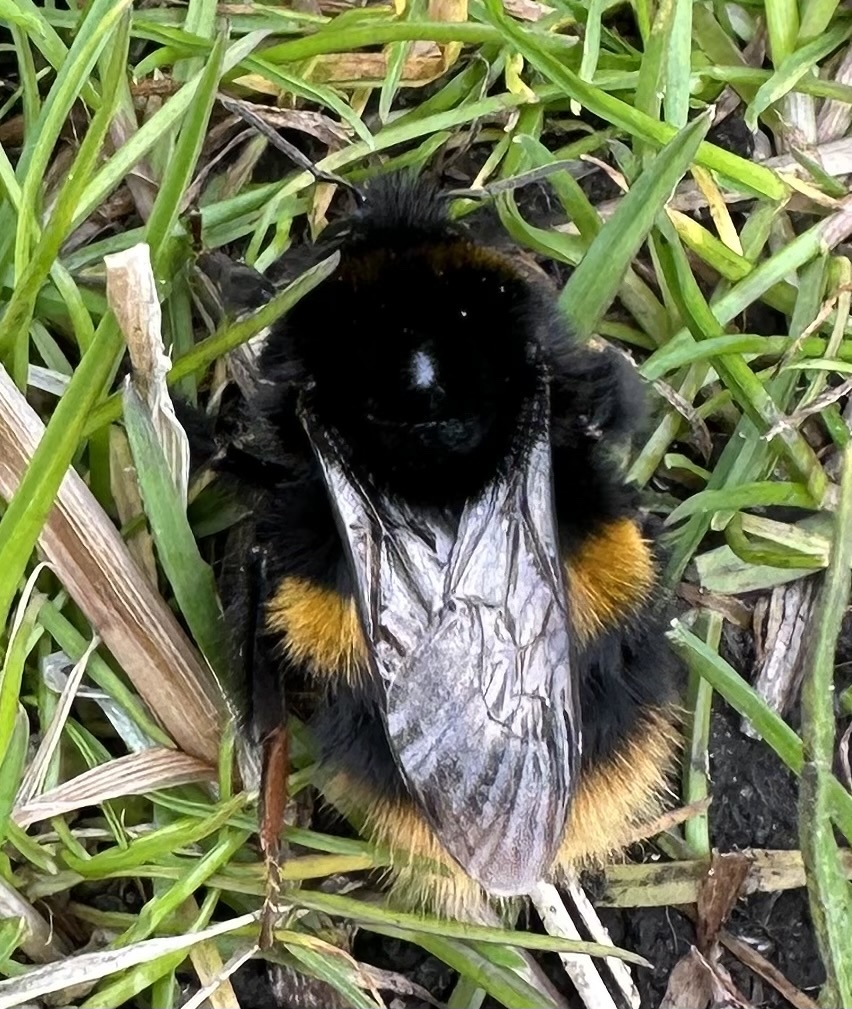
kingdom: Animalia
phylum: Arthropoda
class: Insecta
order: Hymenoptera
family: Apidae
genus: Bombus
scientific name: Bombus terrestris
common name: Buff-tailed bumblebee
